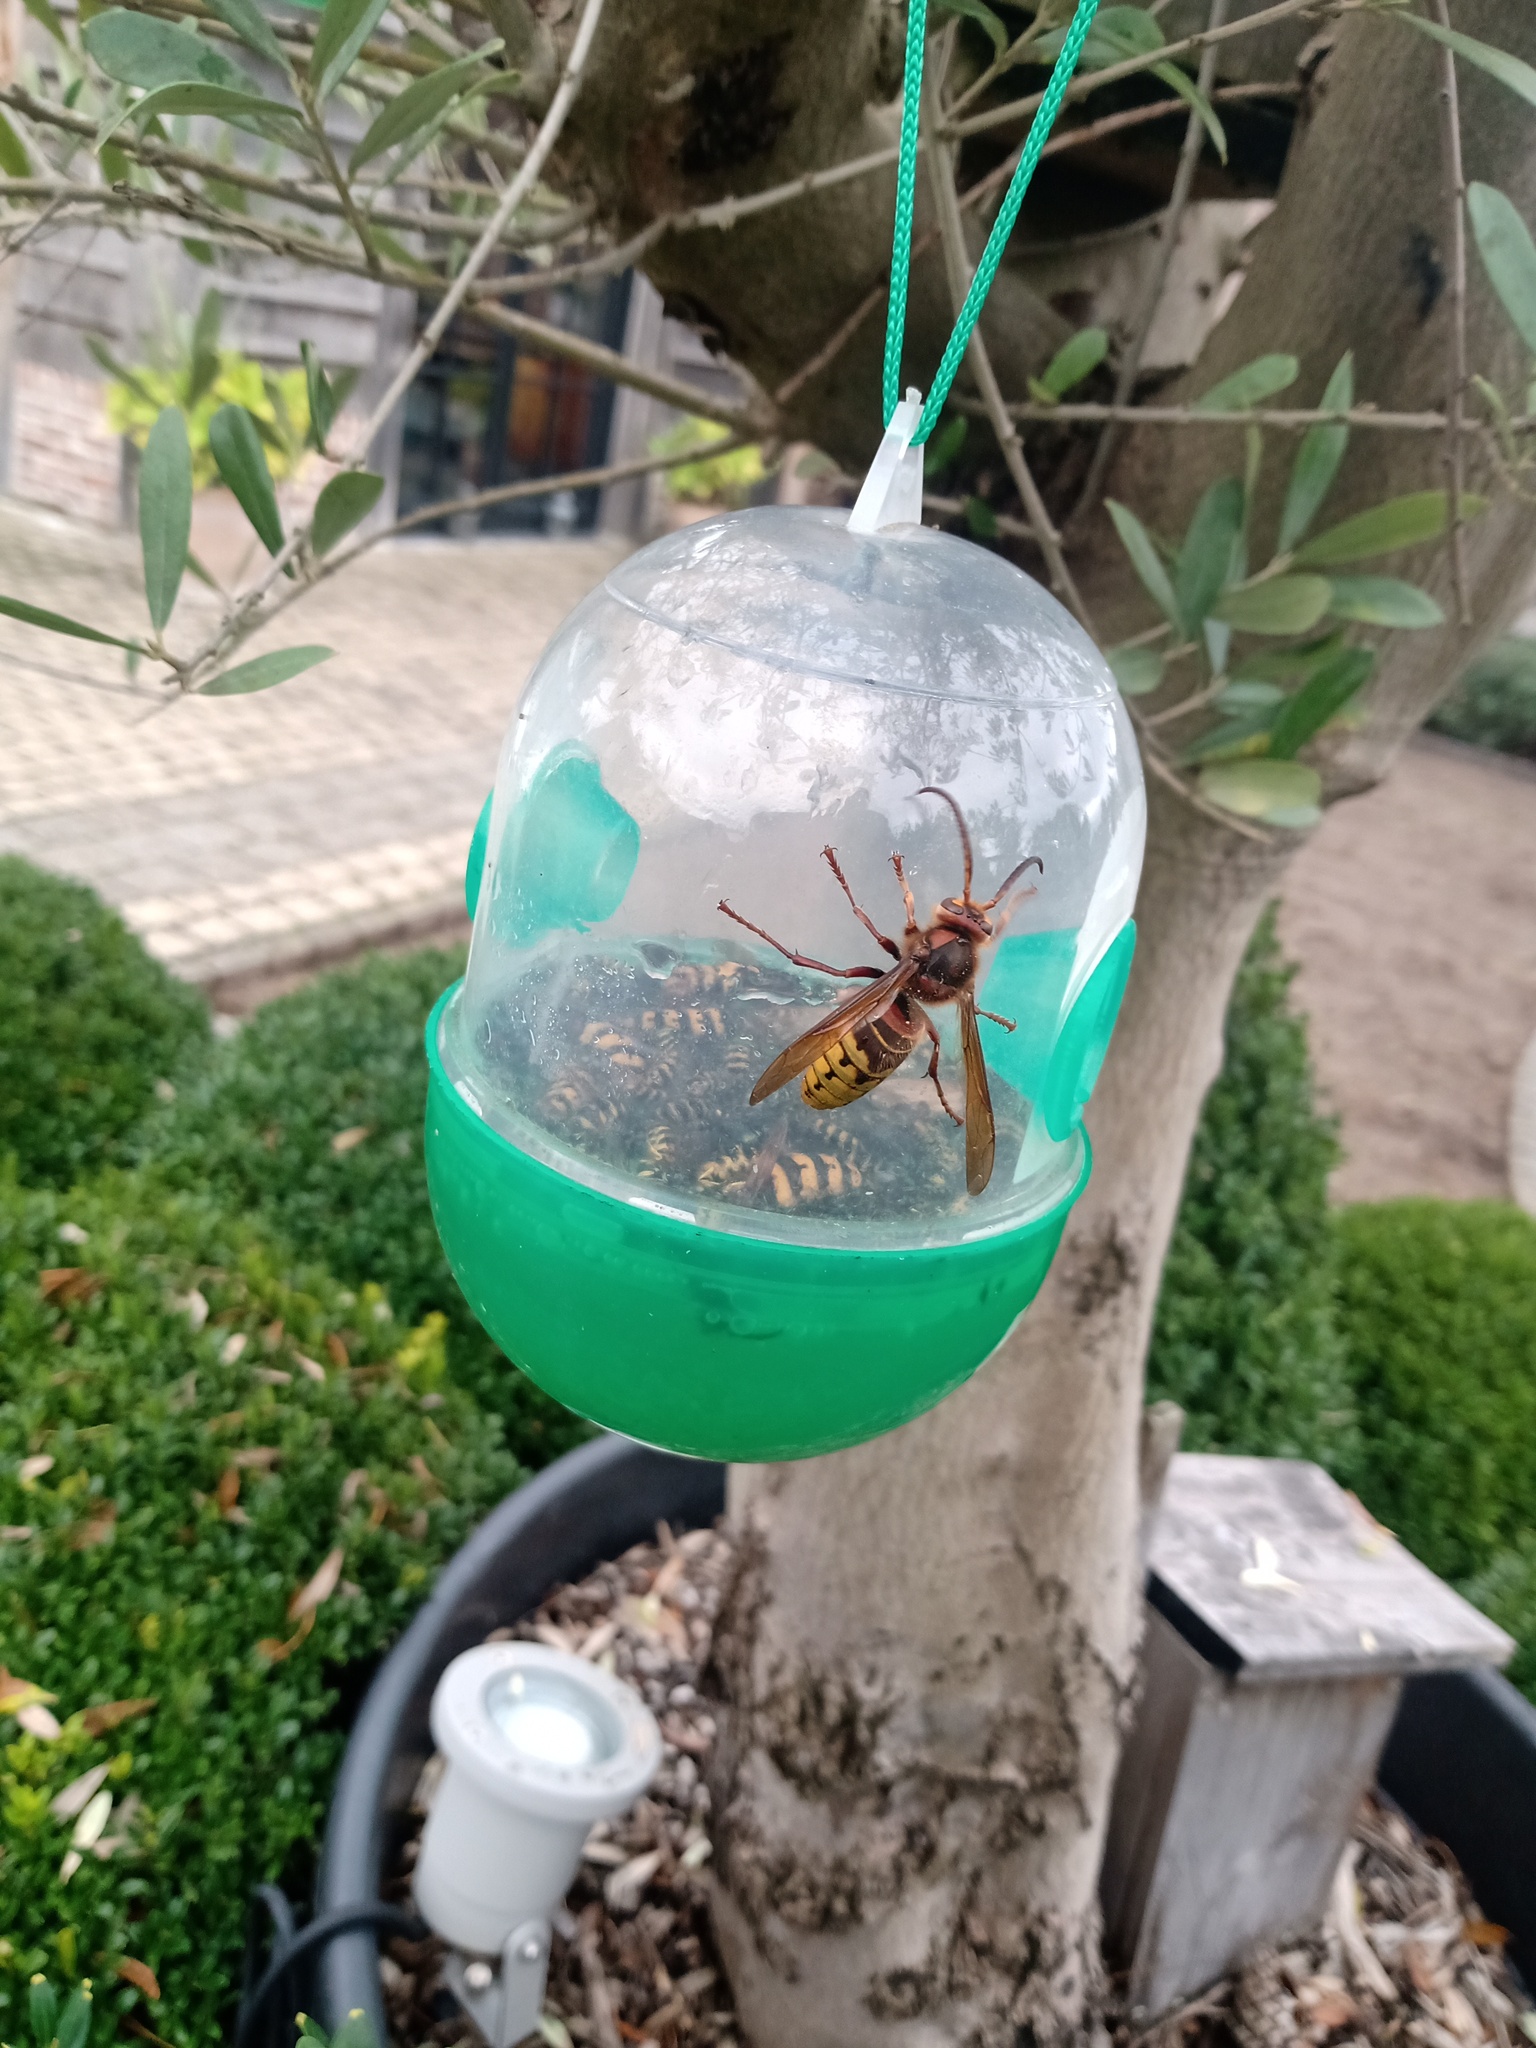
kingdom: Animalia
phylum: Arthropoda
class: Insecta
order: Hymenoptera
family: Vespidae
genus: Vespa
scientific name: Vespa crabro
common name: Hornet
